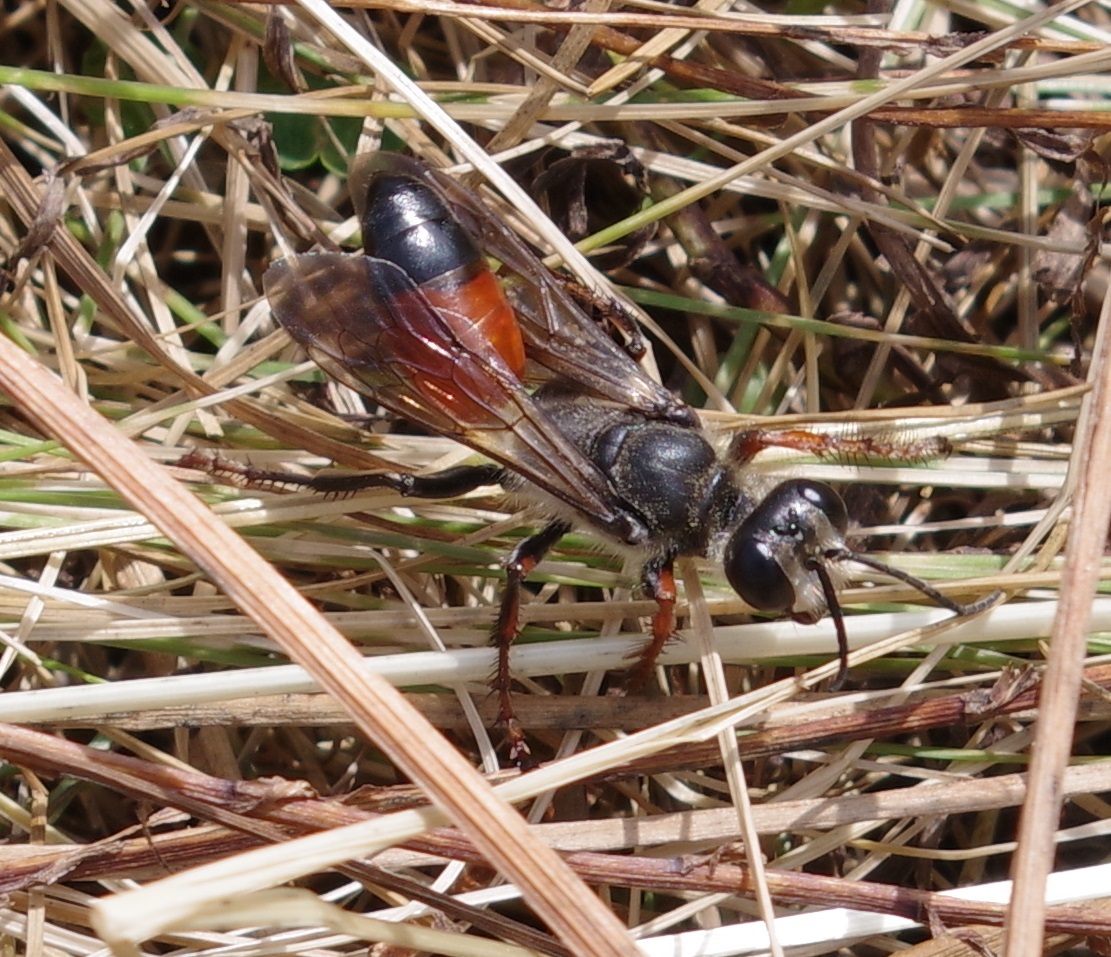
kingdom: Animalia
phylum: Arthropoda
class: Insecta
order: Hymenoptera
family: Sphecidae
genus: Sphex
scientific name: Sphex funerarius
